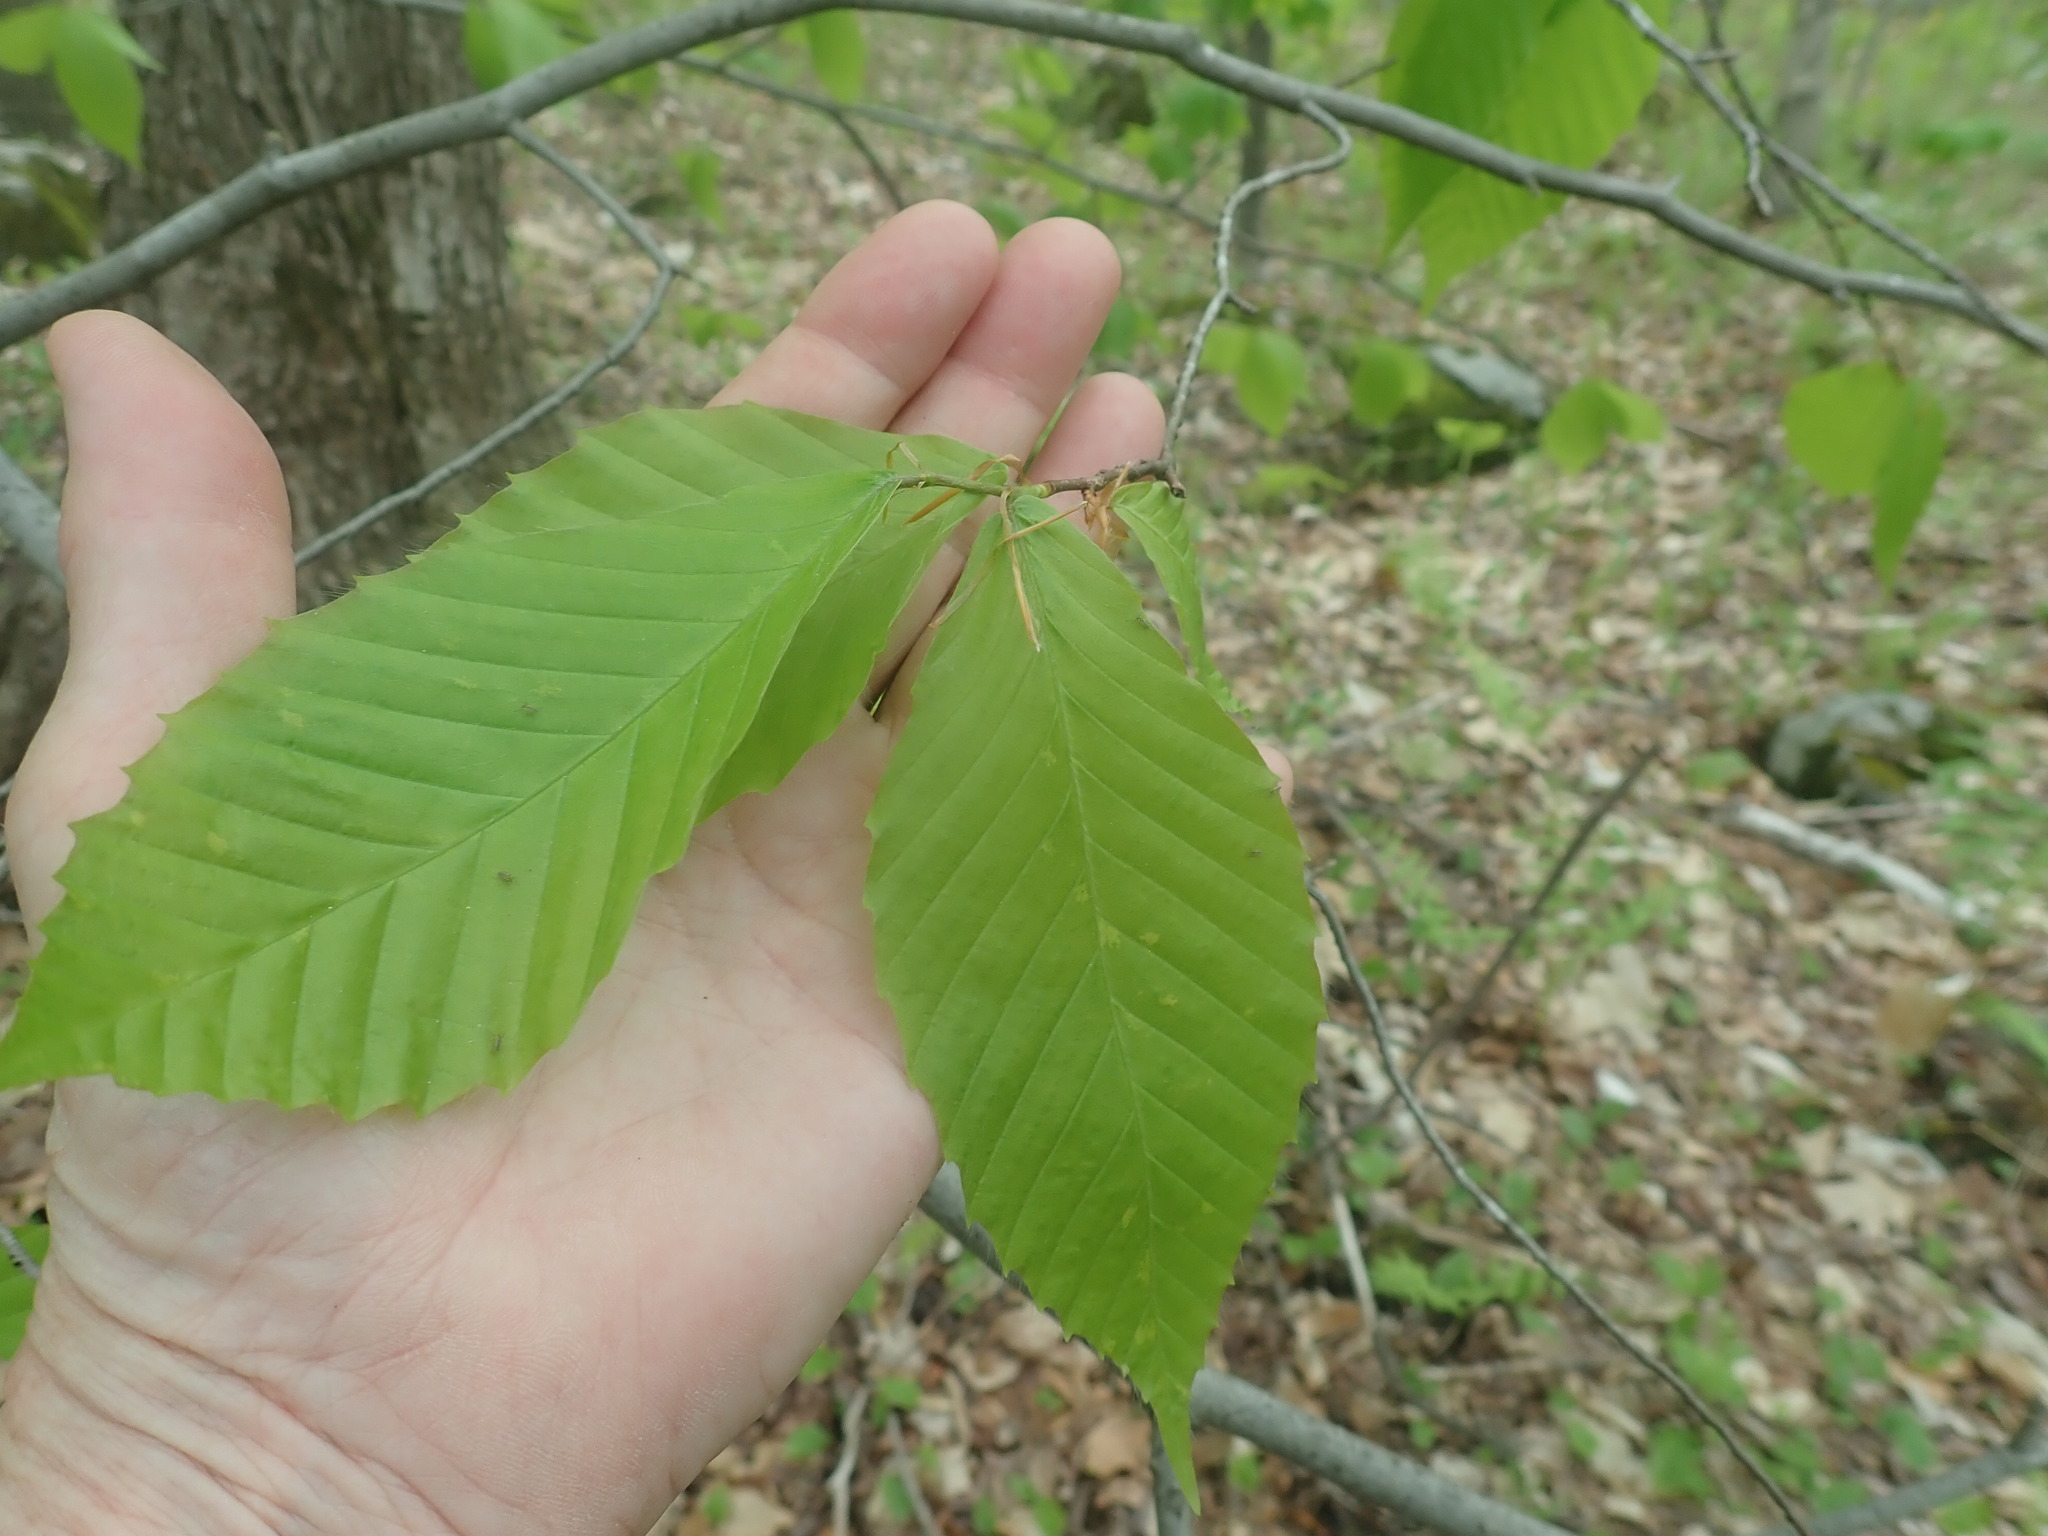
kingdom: Plantae
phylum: Tracheophyta
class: Magnoliopsida
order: Fagales
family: Fagaceae
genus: Fagus
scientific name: Fagus grandifolia
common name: American beech
